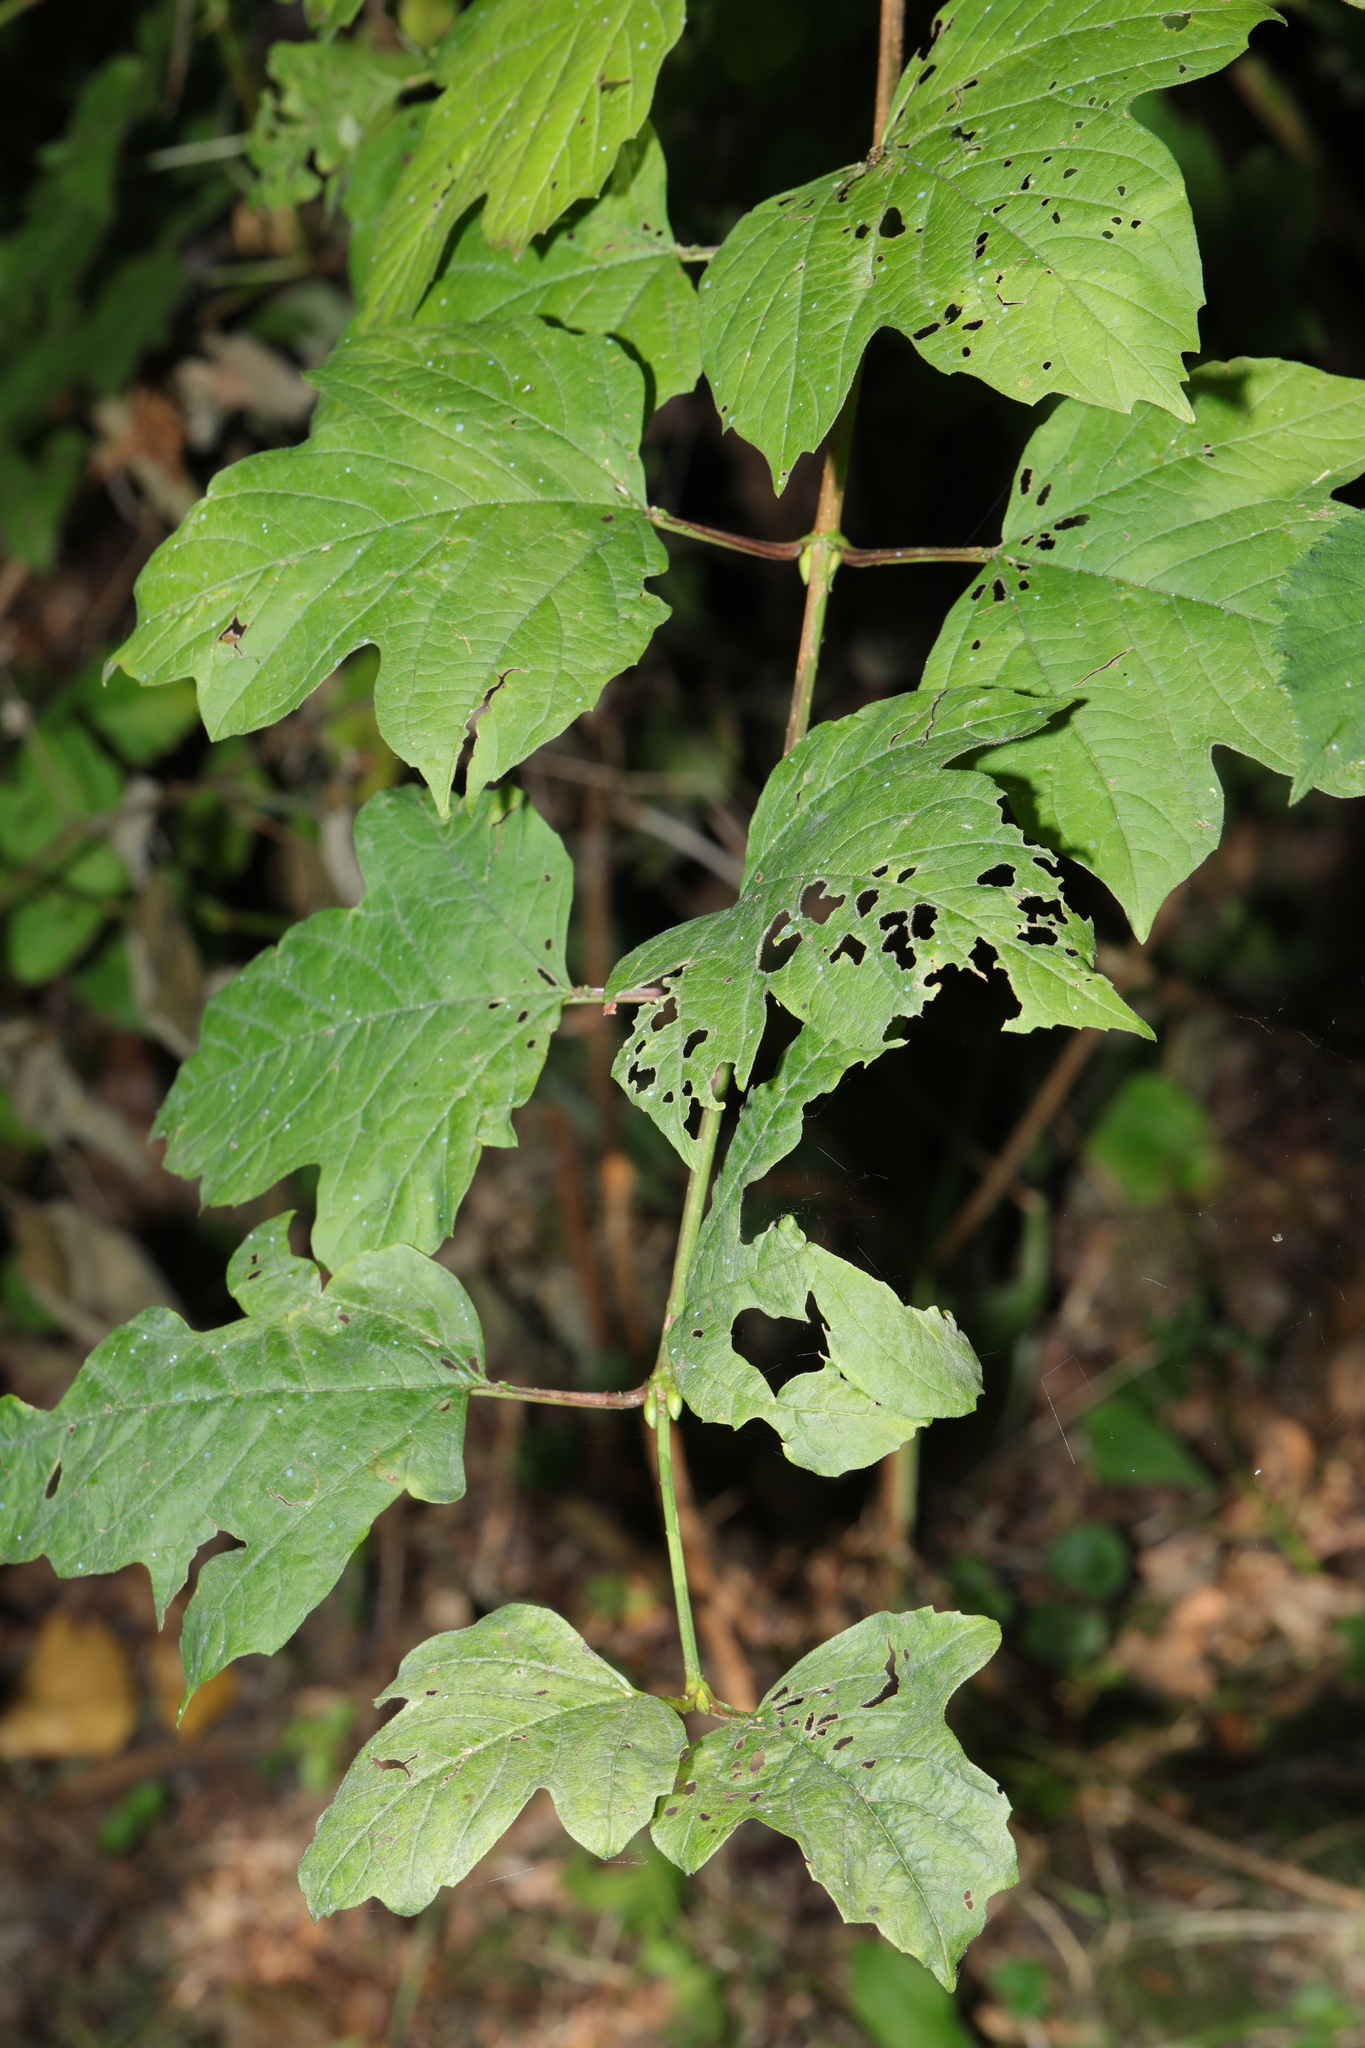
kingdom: Plantae
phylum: Tracheophyta
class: Magnoliopsida
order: Dipsacales
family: Viburnaceae
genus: Viburnum
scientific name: Viburnum opulus
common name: Guelder-rose
